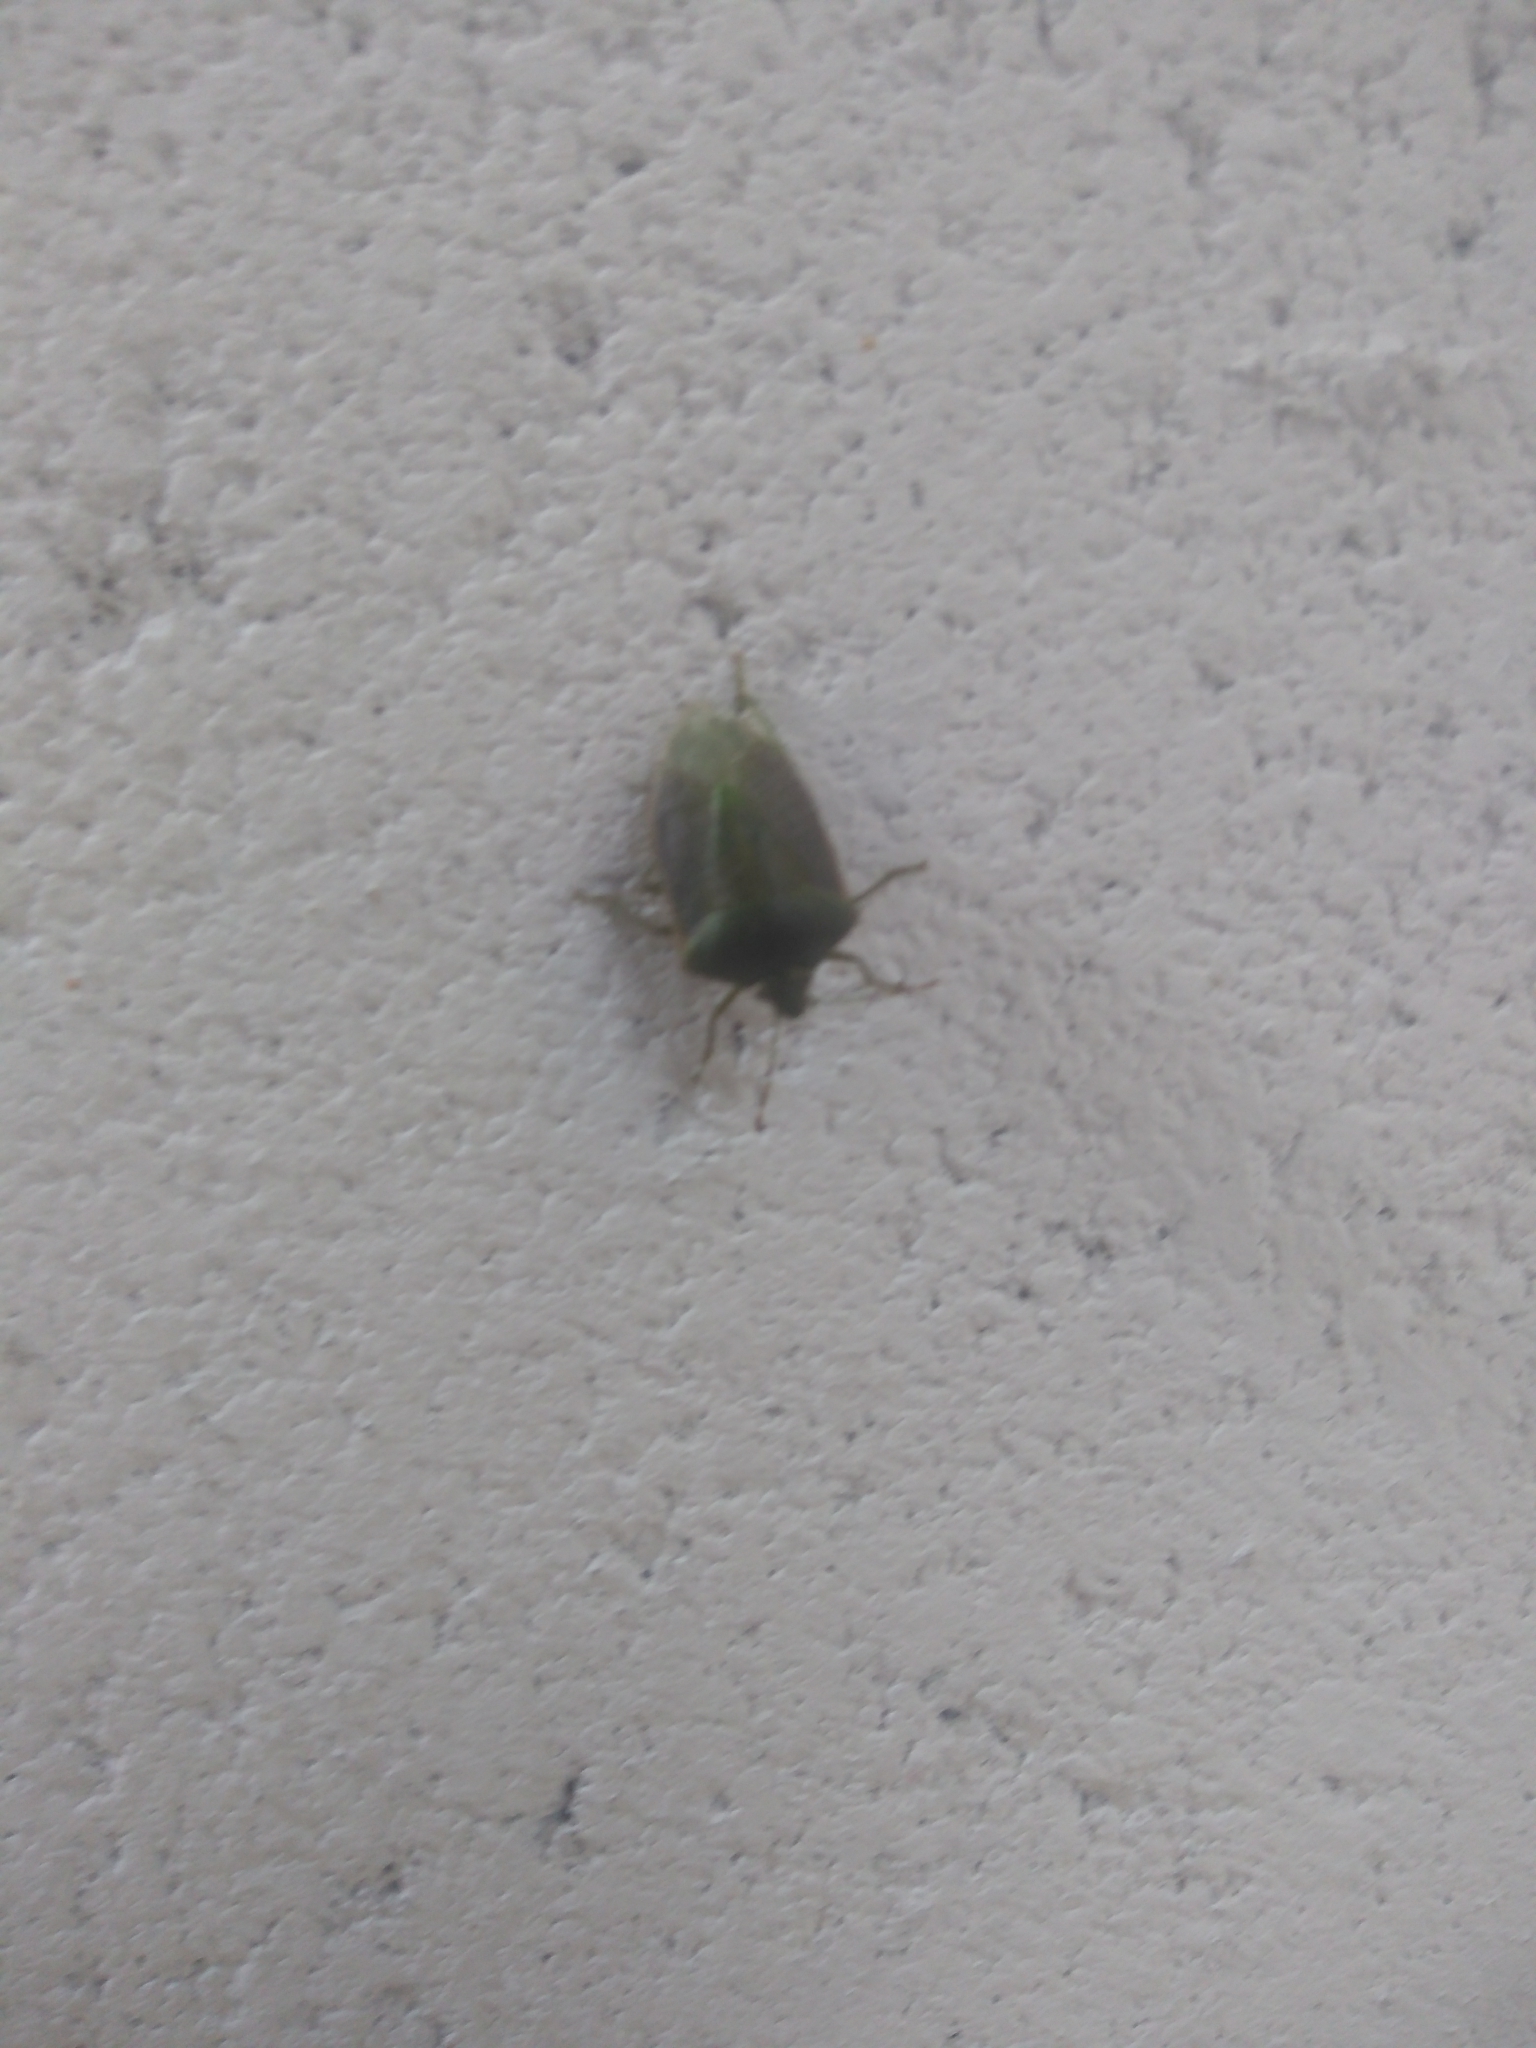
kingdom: Animalia
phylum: Arthropoda
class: Insecta
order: Hemiptera
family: Pentatomidae
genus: Nezara
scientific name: Nezara viridula
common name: Southern green stink bug
